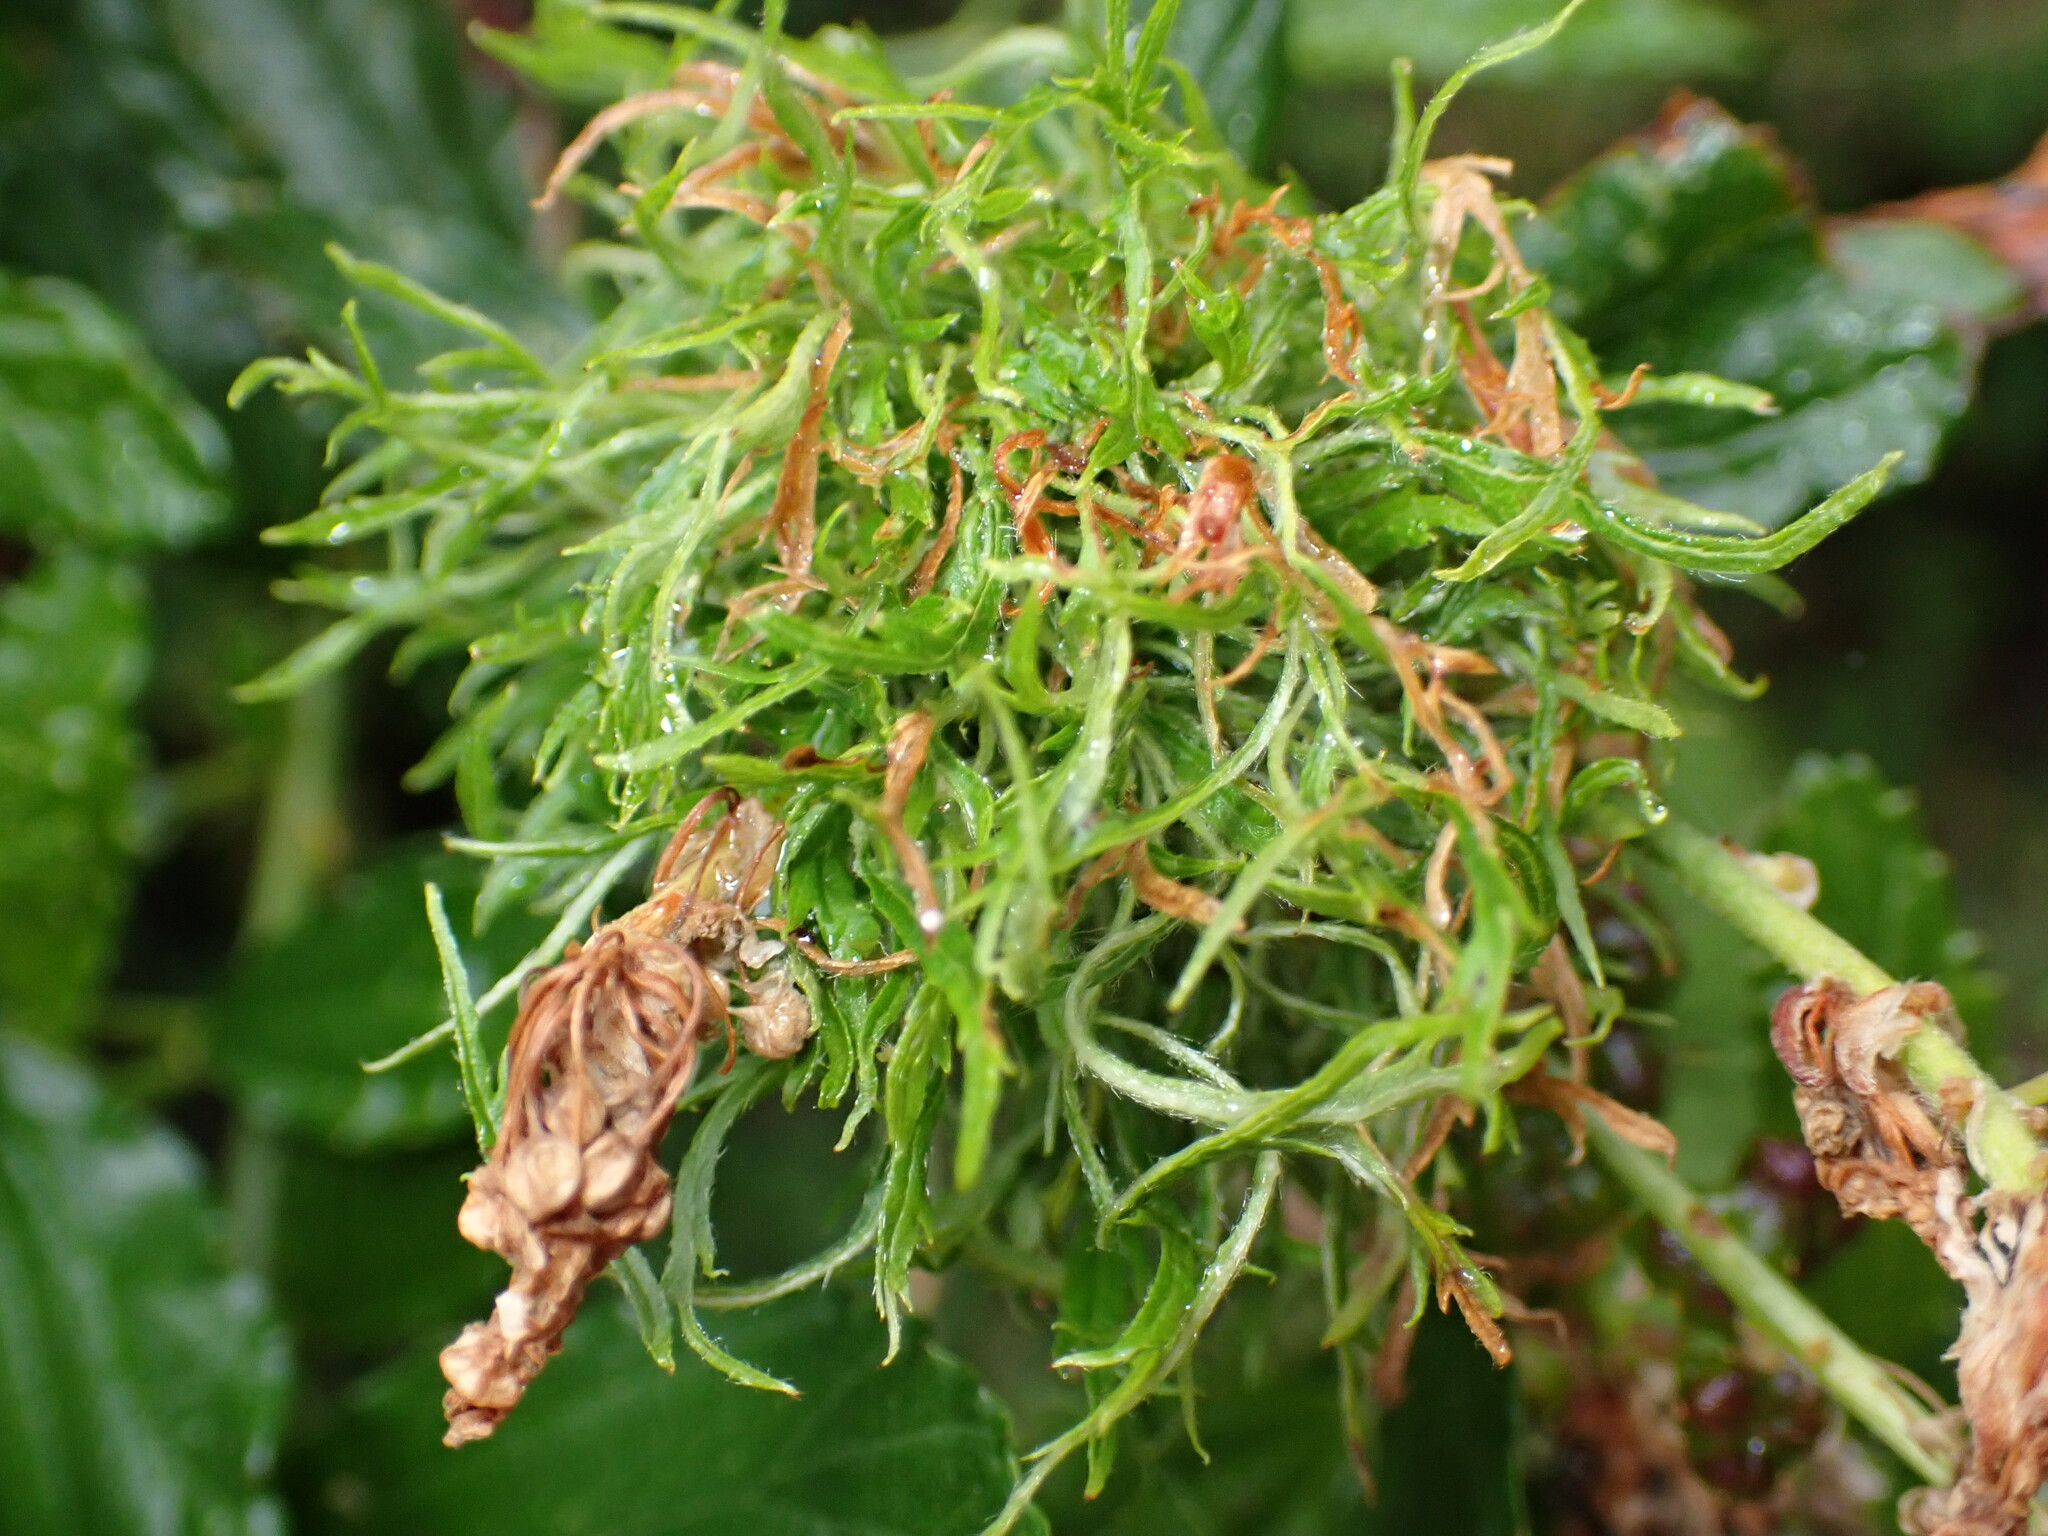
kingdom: Animalia
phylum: Arthropoda
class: Insecta
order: Diptera
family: Cecidomyiidae
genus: Asphondylia
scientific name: Asphondylia ceanothi
